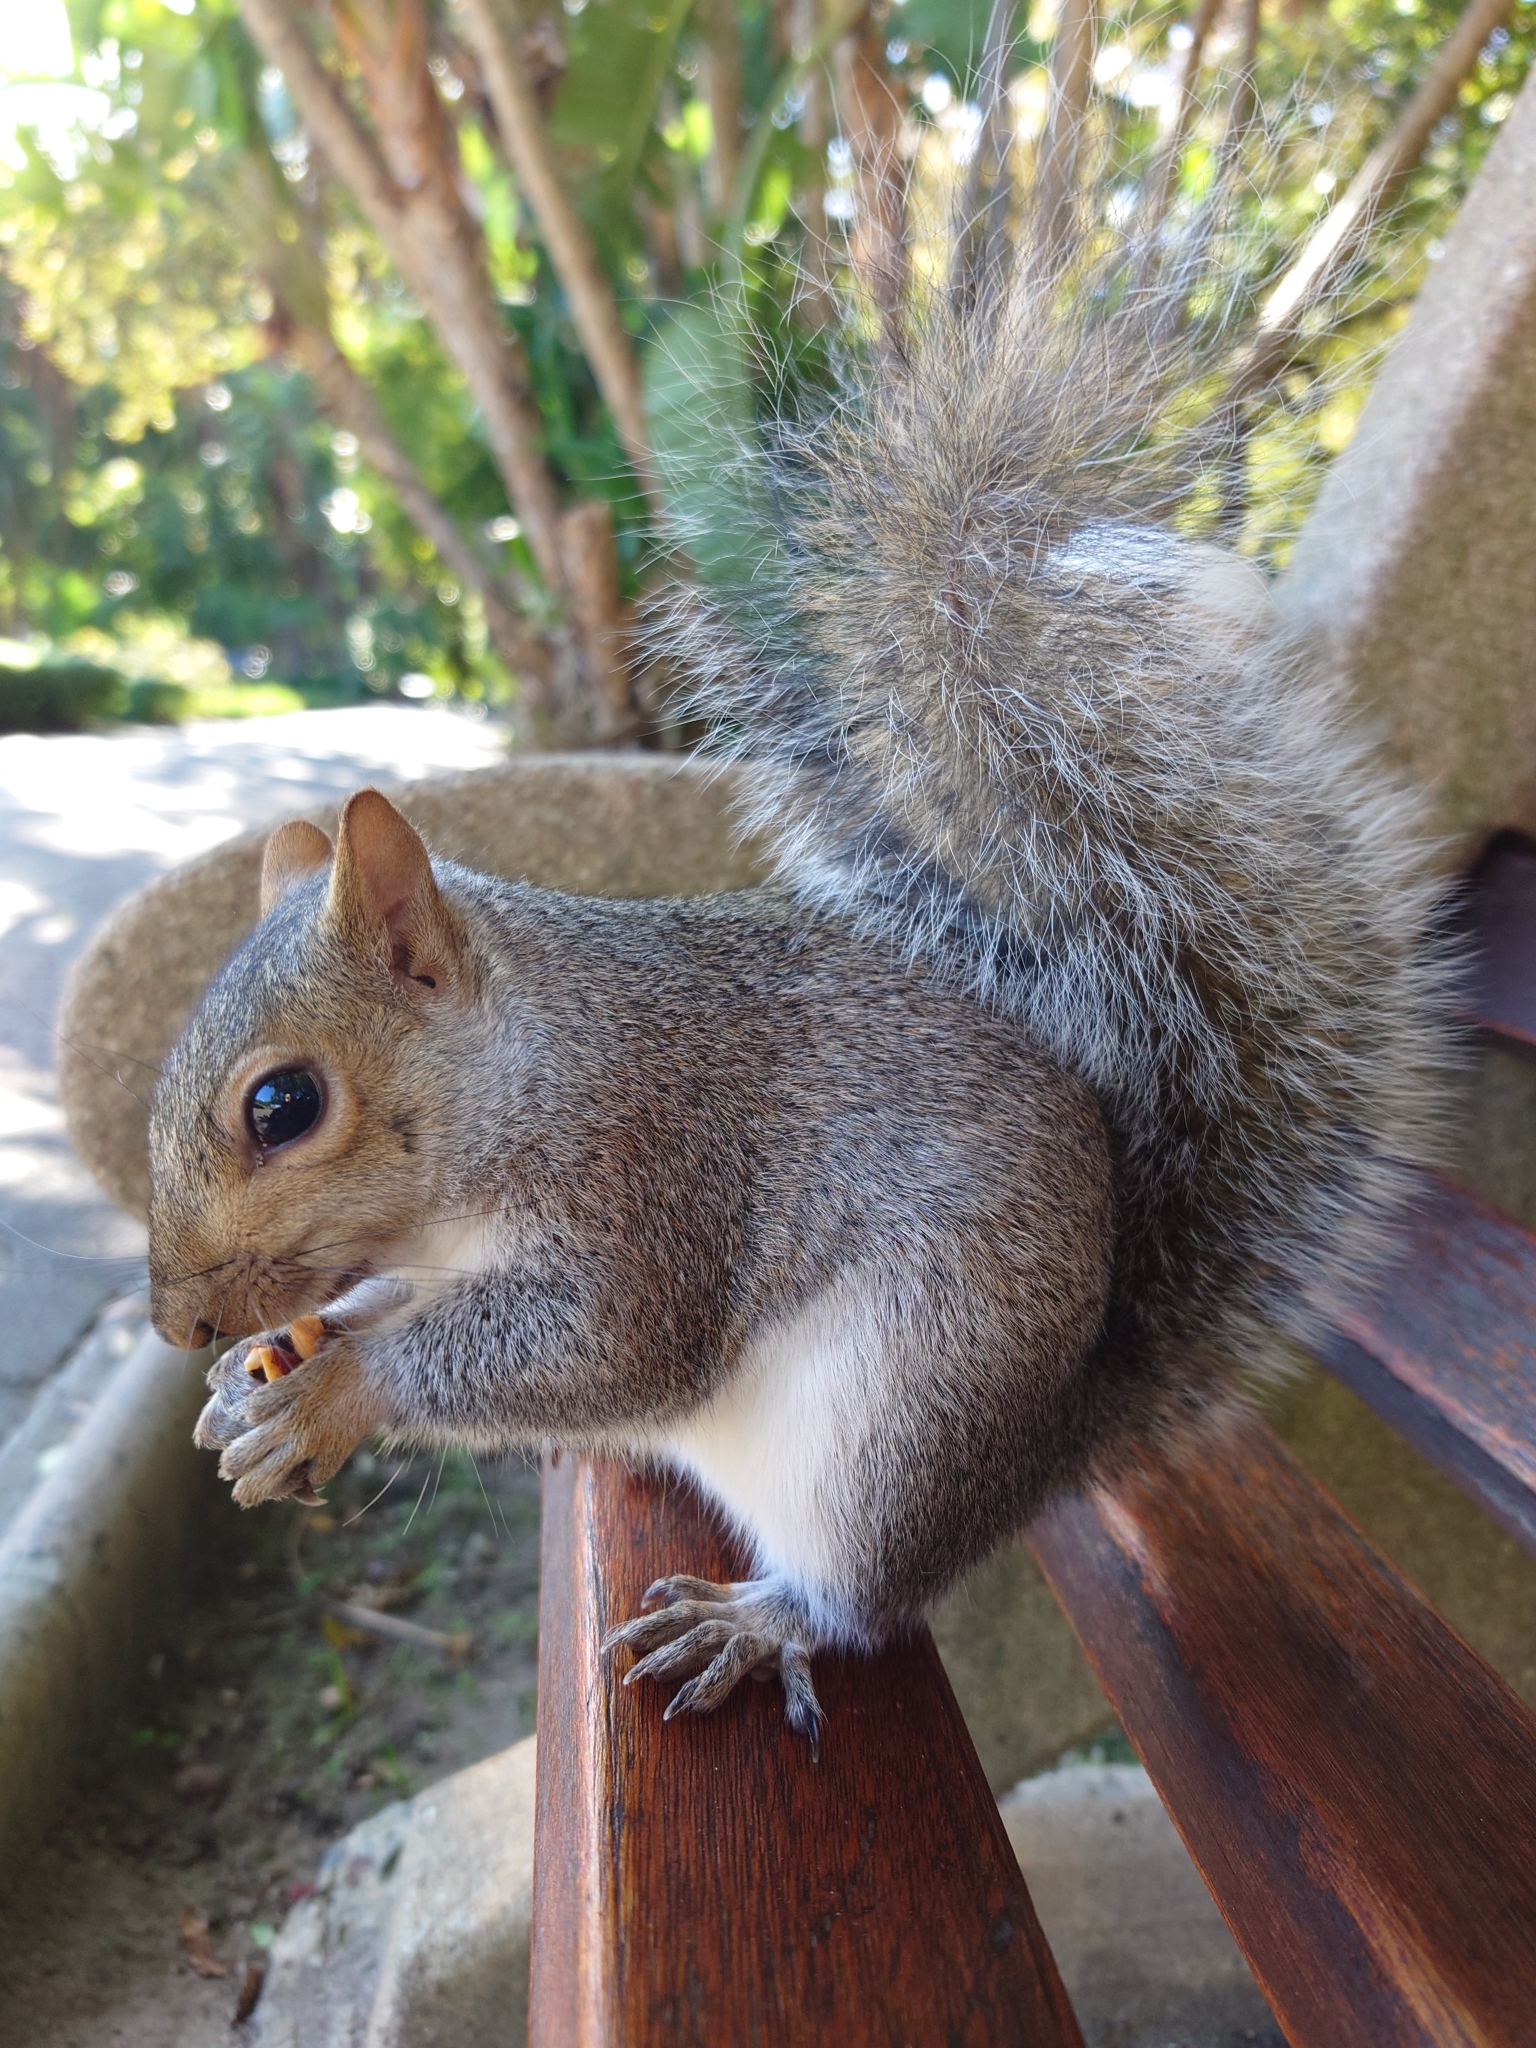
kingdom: Animalia
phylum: Chordata
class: Mammalia
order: Rodentia
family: Sciuridae
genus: Sciurus
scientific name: Sciurus carolinensis
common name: Eastern gray squirrel
